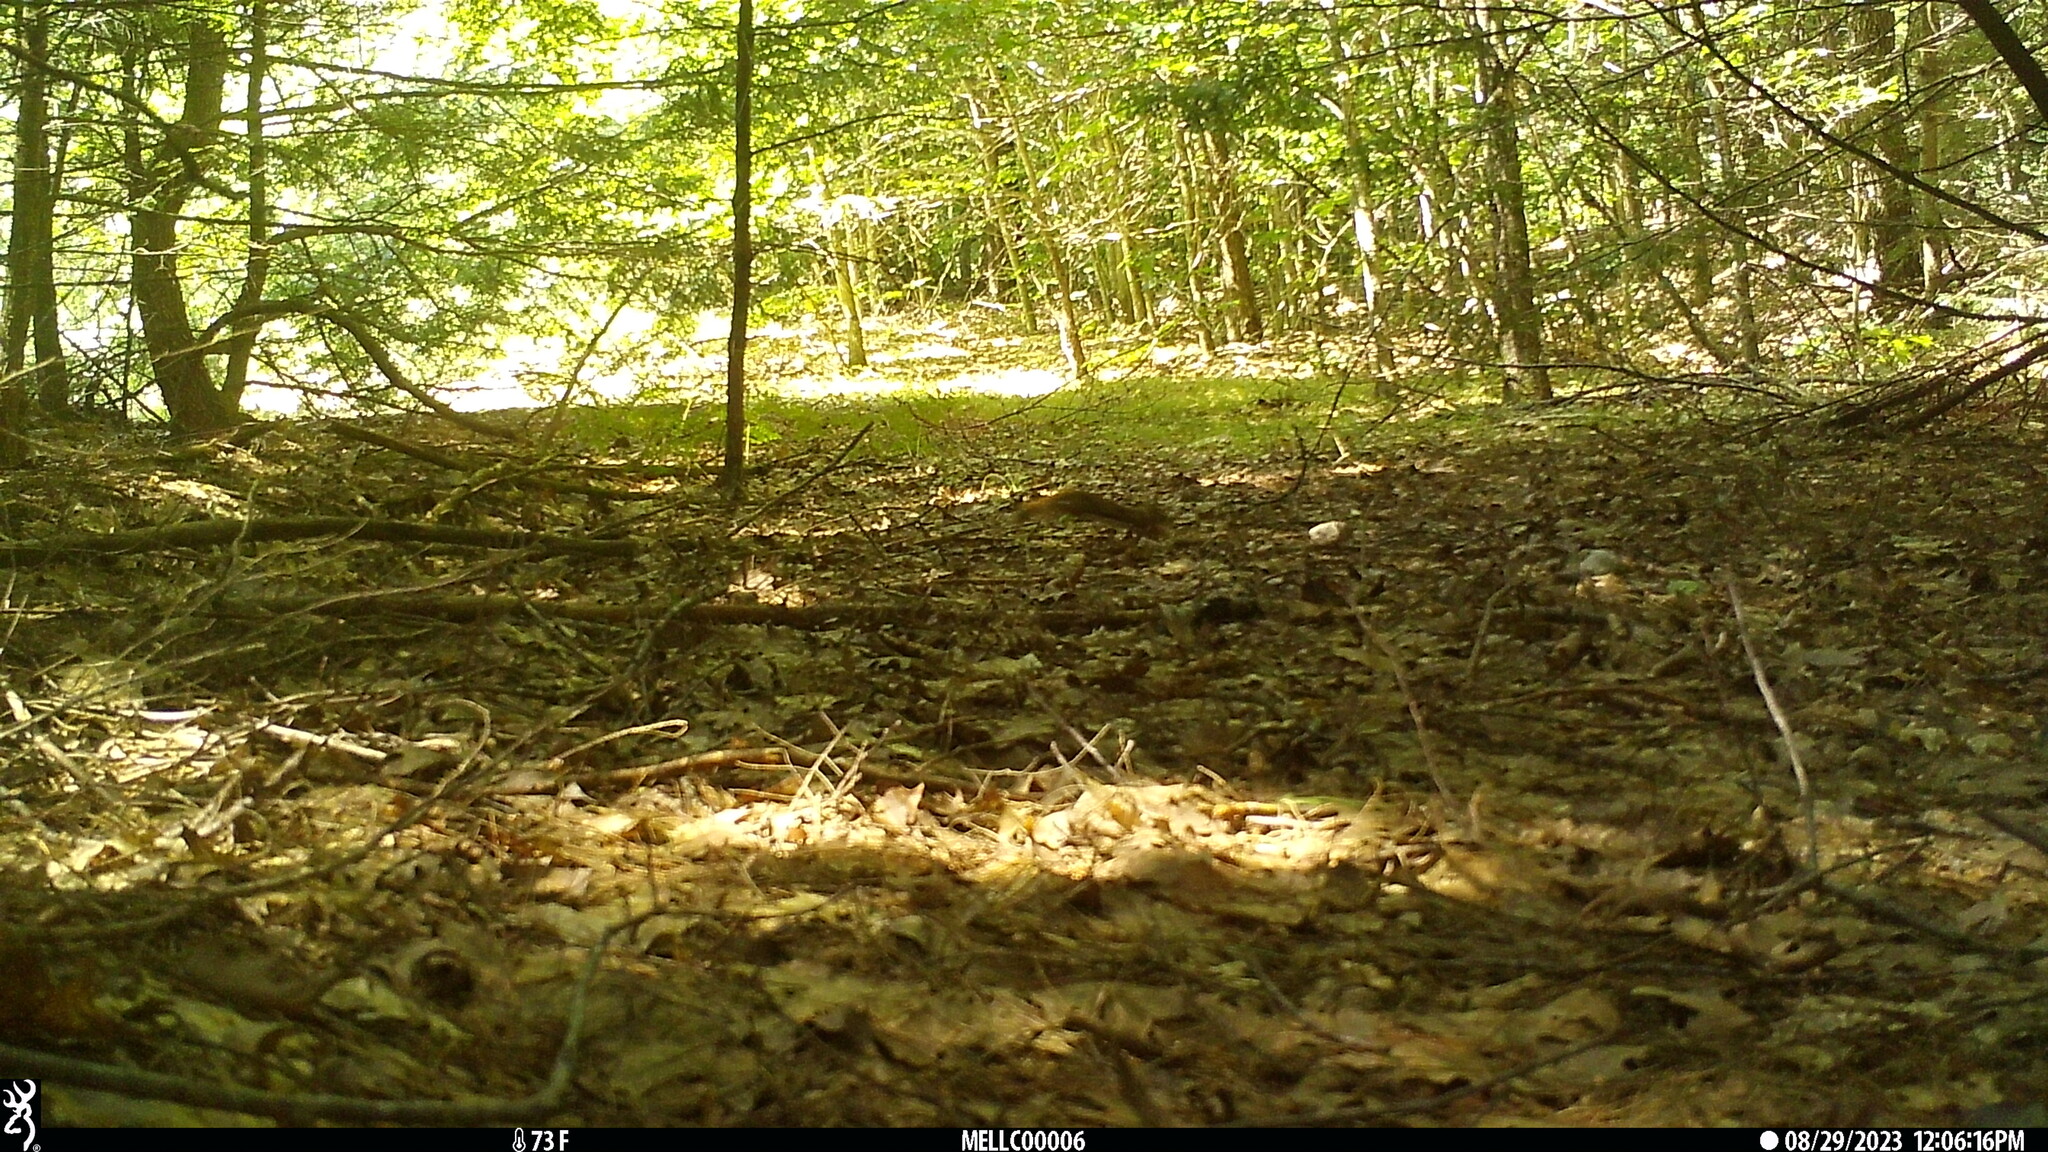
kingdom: Animalia
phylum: Chordata
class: Mammalia
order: Rodentia
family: Sciuridae
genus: Tamiasciurus
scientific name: Tamiasciurus hudsonicus
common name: Red squirrel
